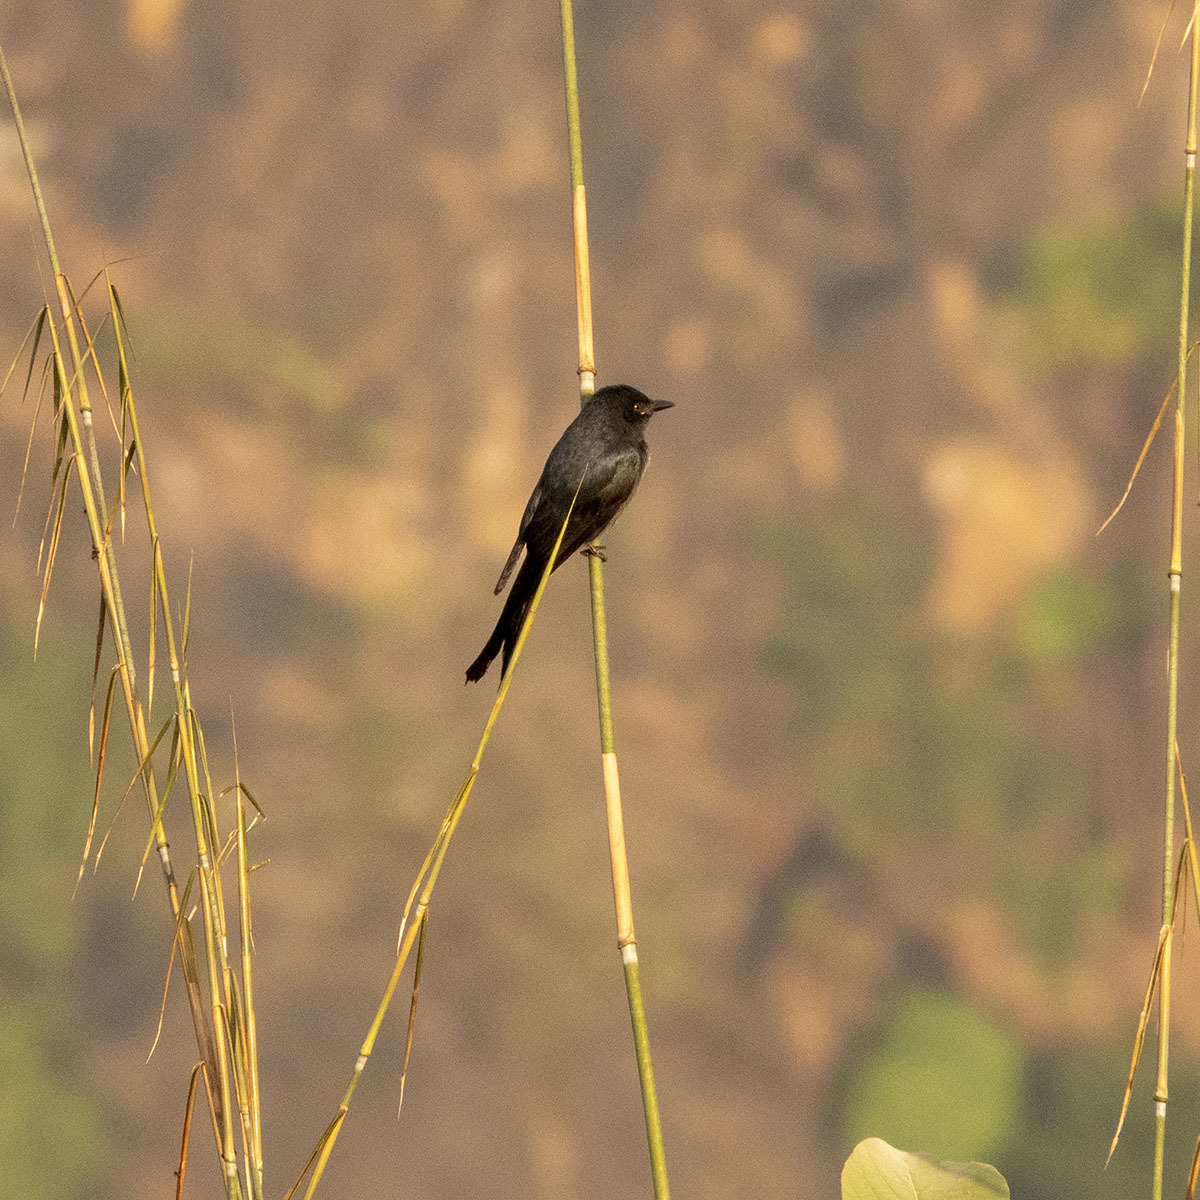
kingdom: Animalia
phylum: Chordata
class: Aves
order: Passeriformes
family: Dicruridae
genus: Dicrurus
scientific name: Dicrurus macrocercus
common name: Black drongo
